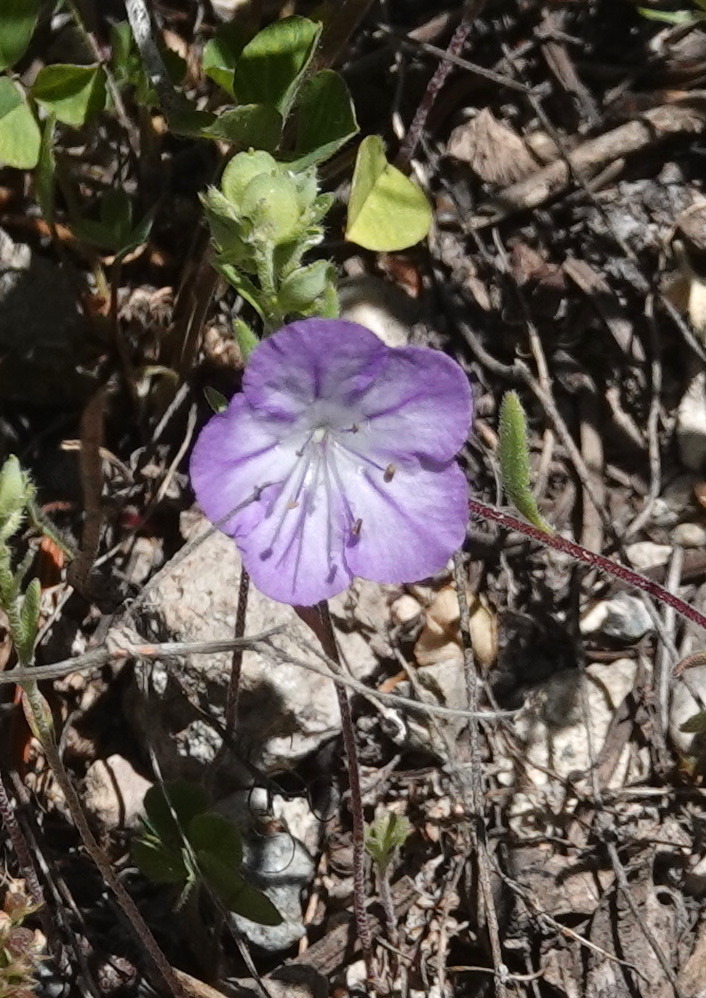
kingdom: Plantae
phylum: Tracheophyta
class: Magnoliopsida
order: Boraginales
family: Hydrophyllaceae
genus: Phacelia
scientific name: Phacelia linearis
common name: Linear-leaved phacelia
